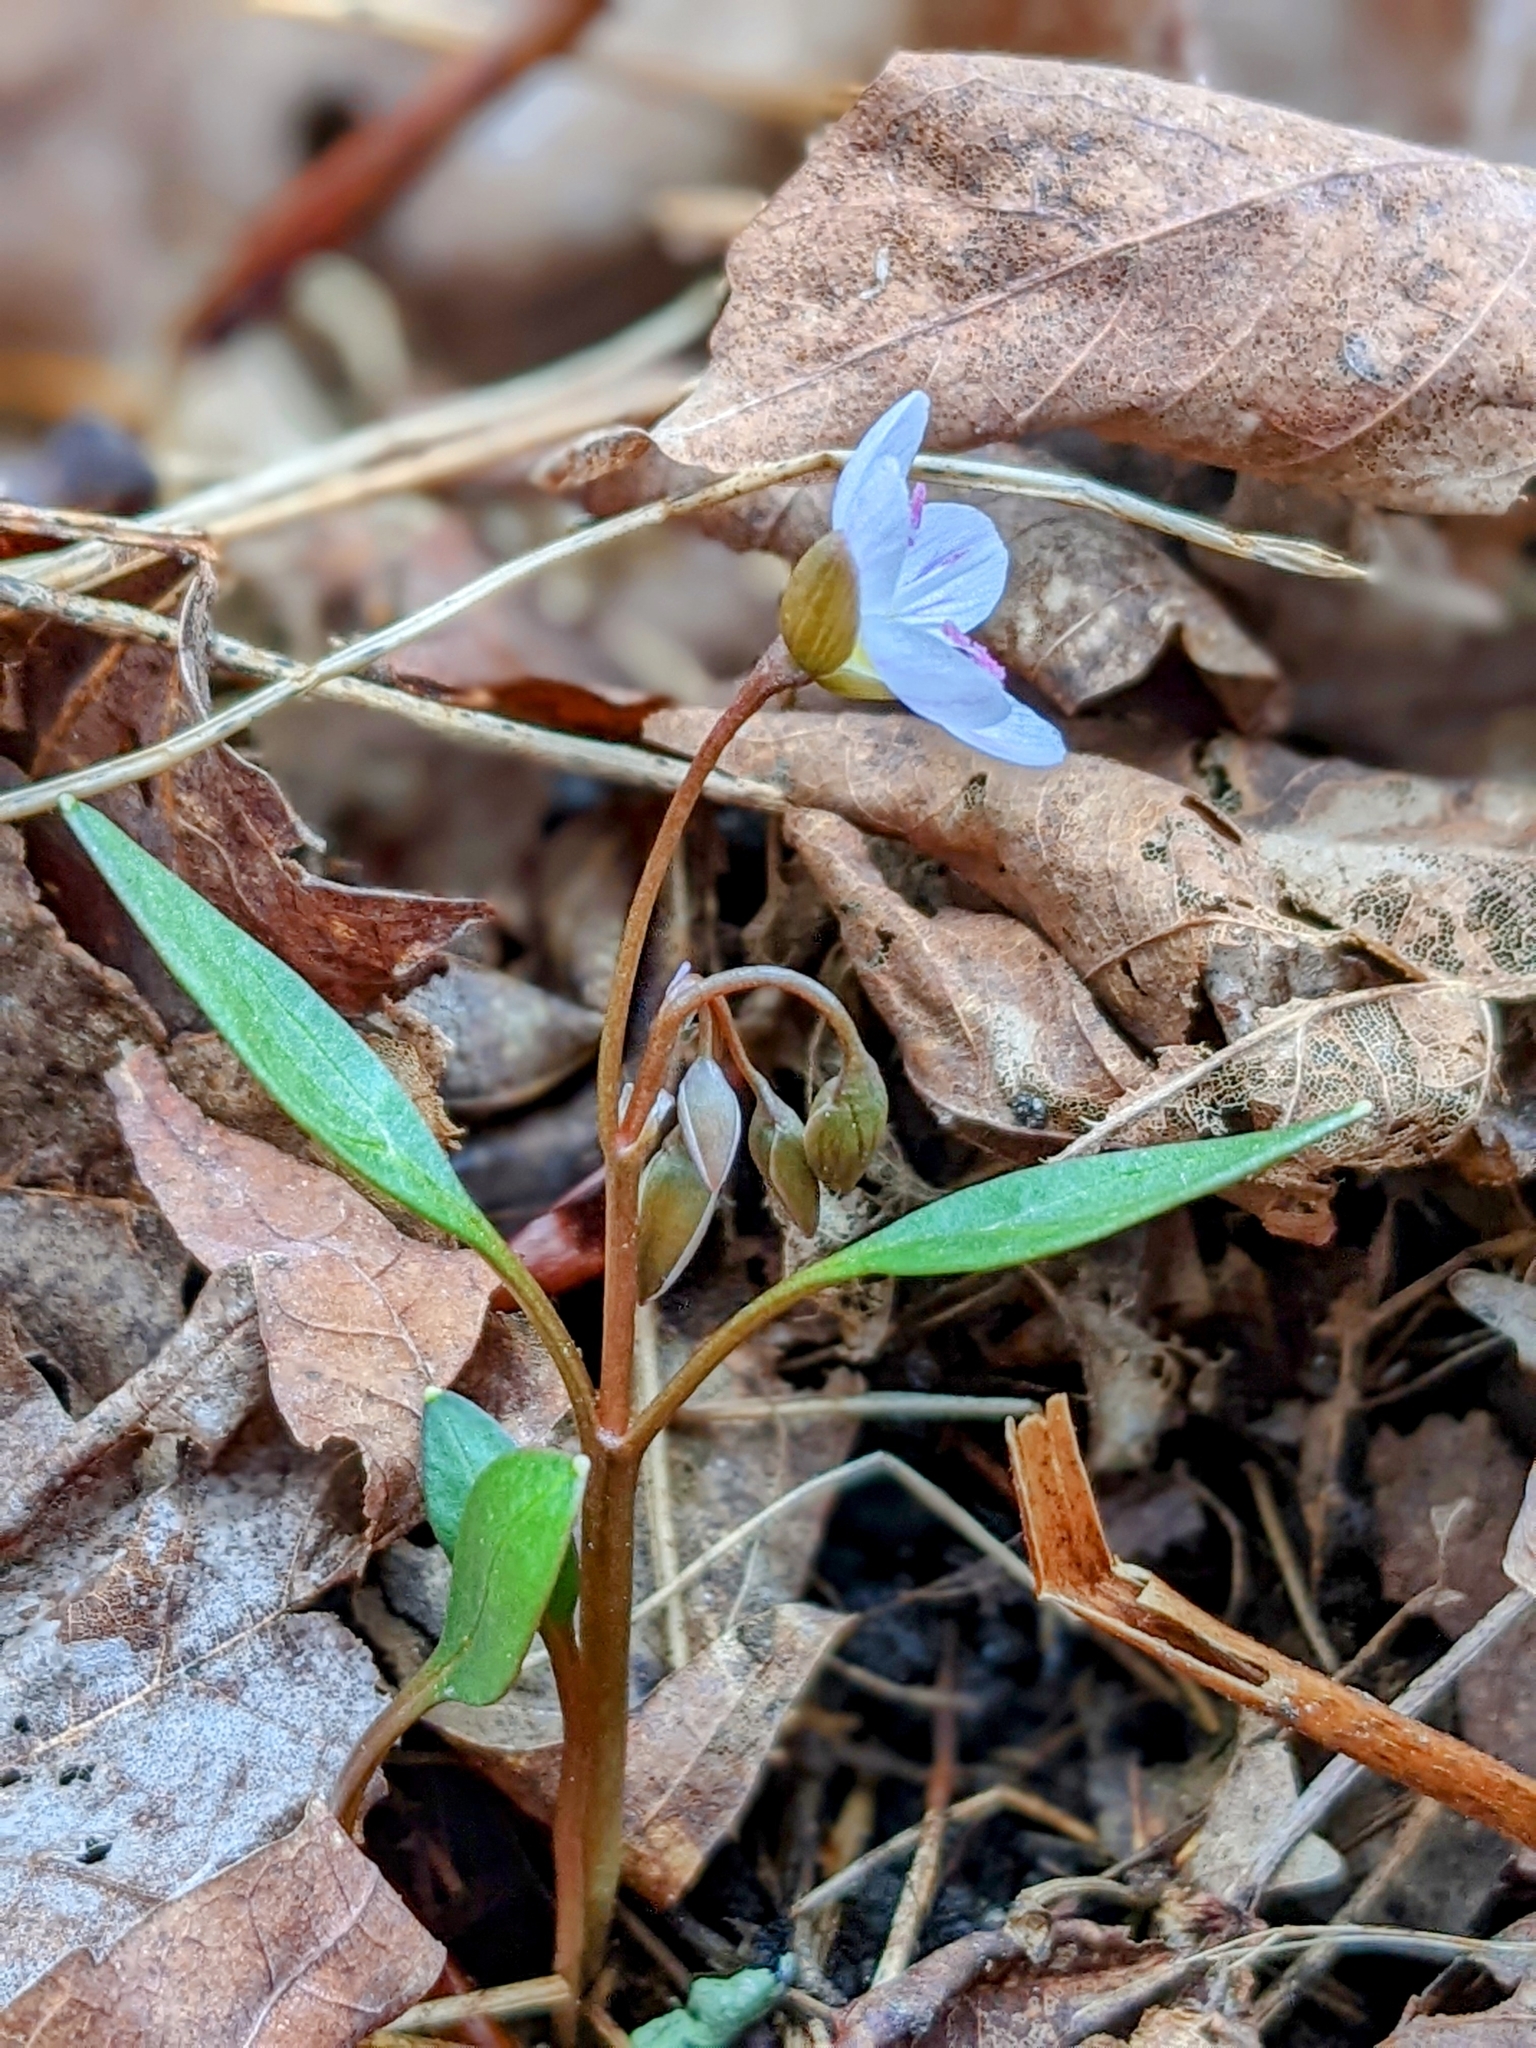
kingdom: Plantae
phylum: Tracheophyta
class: Magnoliopsida
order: Caryophyllales
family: Montiaceae
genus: Claytonia
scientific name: Claytonia caroliniana
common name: Carolina spring beauty
